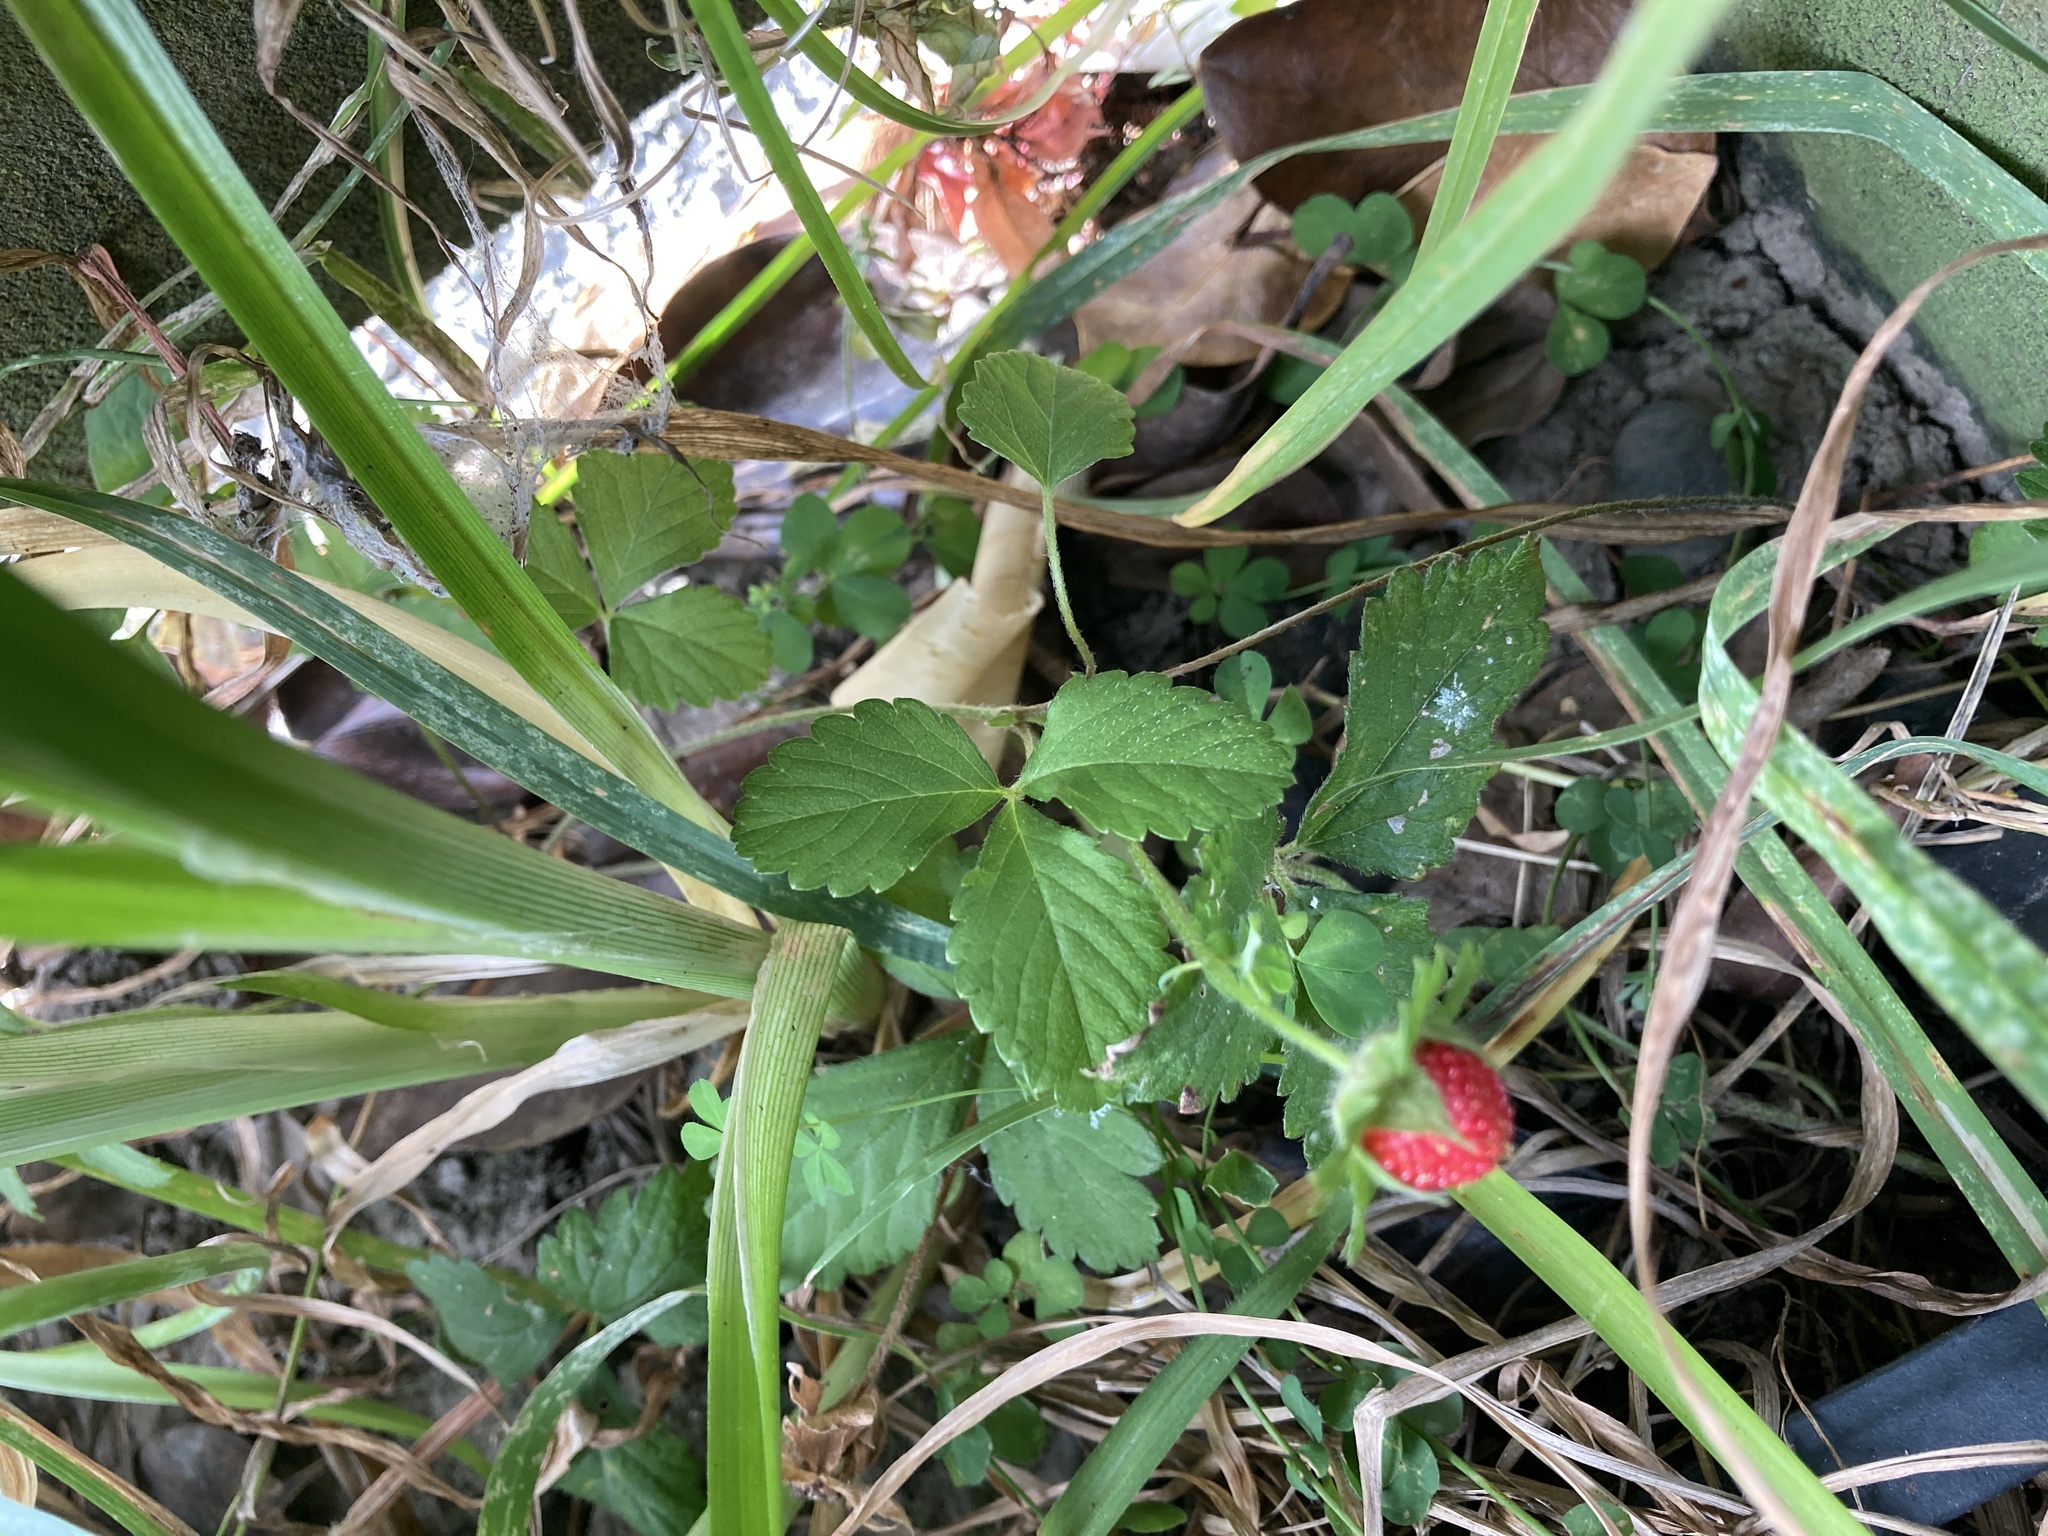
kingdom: Plantae
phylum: Tracheophyta
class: Magnoliopsida
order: Rosales
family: Rosaceae
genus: Potentilla
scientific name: Potentilla indica
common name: Yellow-flowered strawberry
